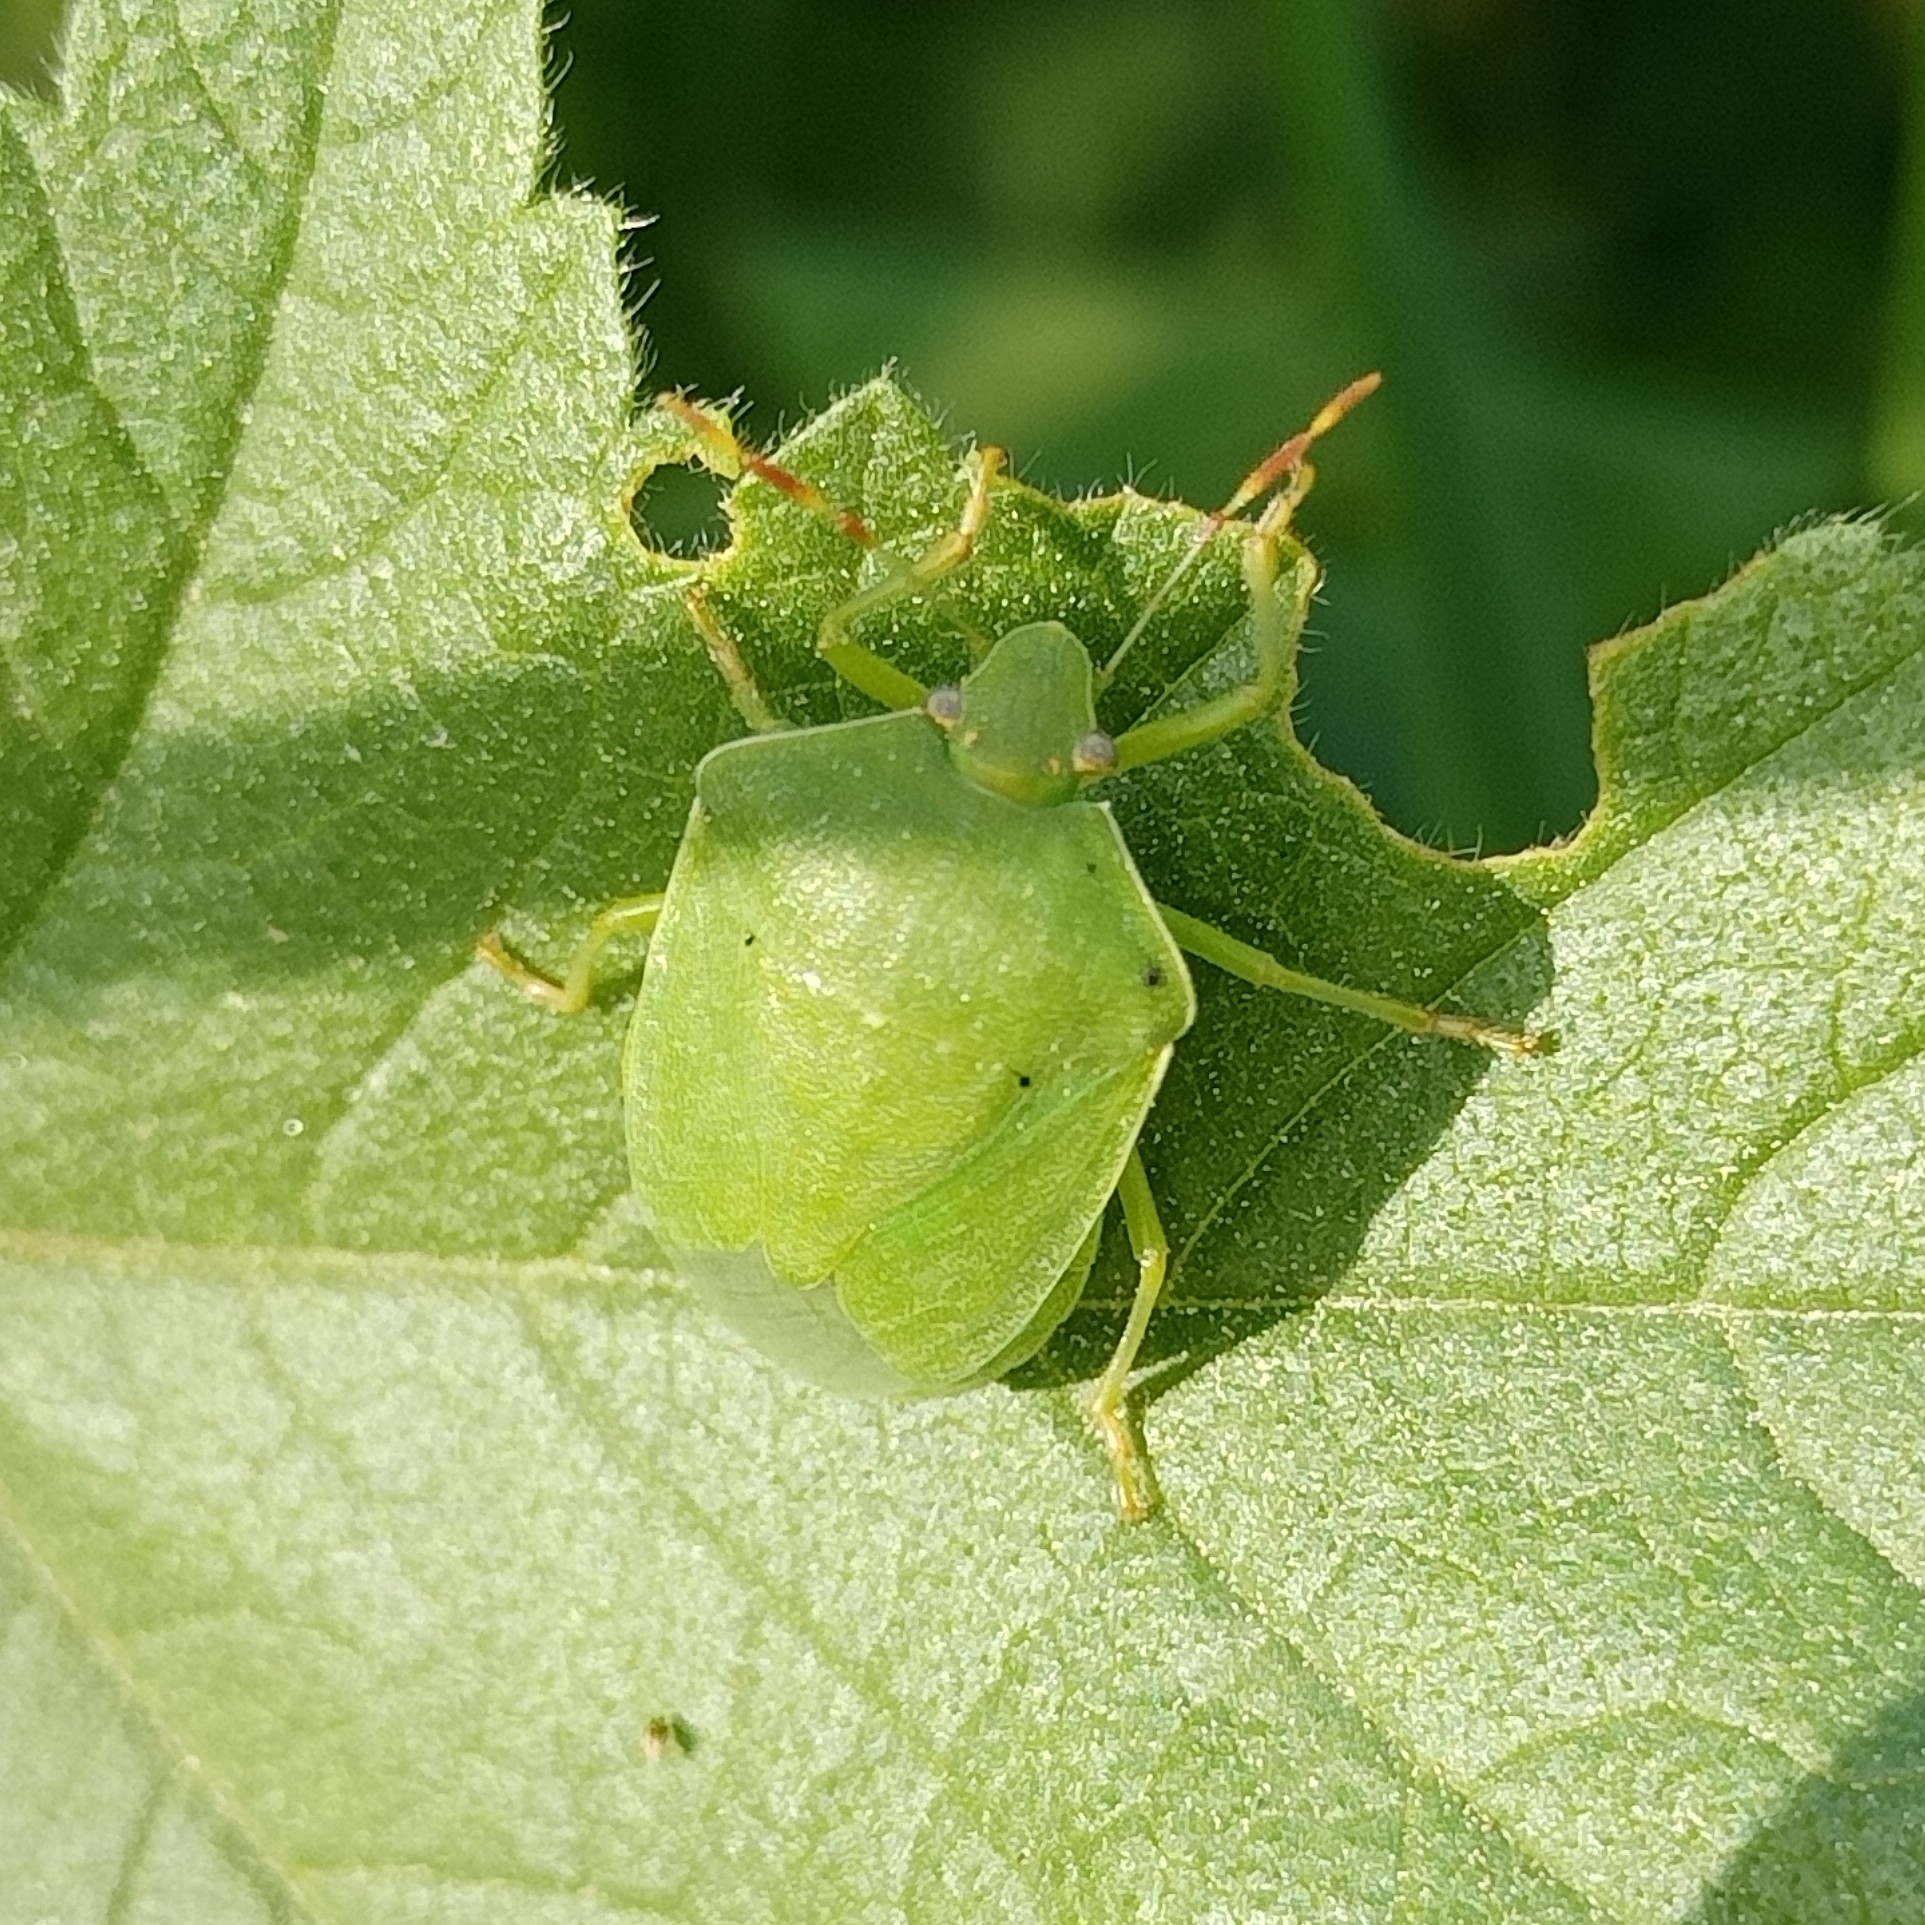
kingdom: Animalia
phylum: Arthropoda
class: Insecta
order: Hemiptera
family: Pentatomidae
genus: Nezara
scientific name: Nezara viridula
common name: Southern green stink bug
